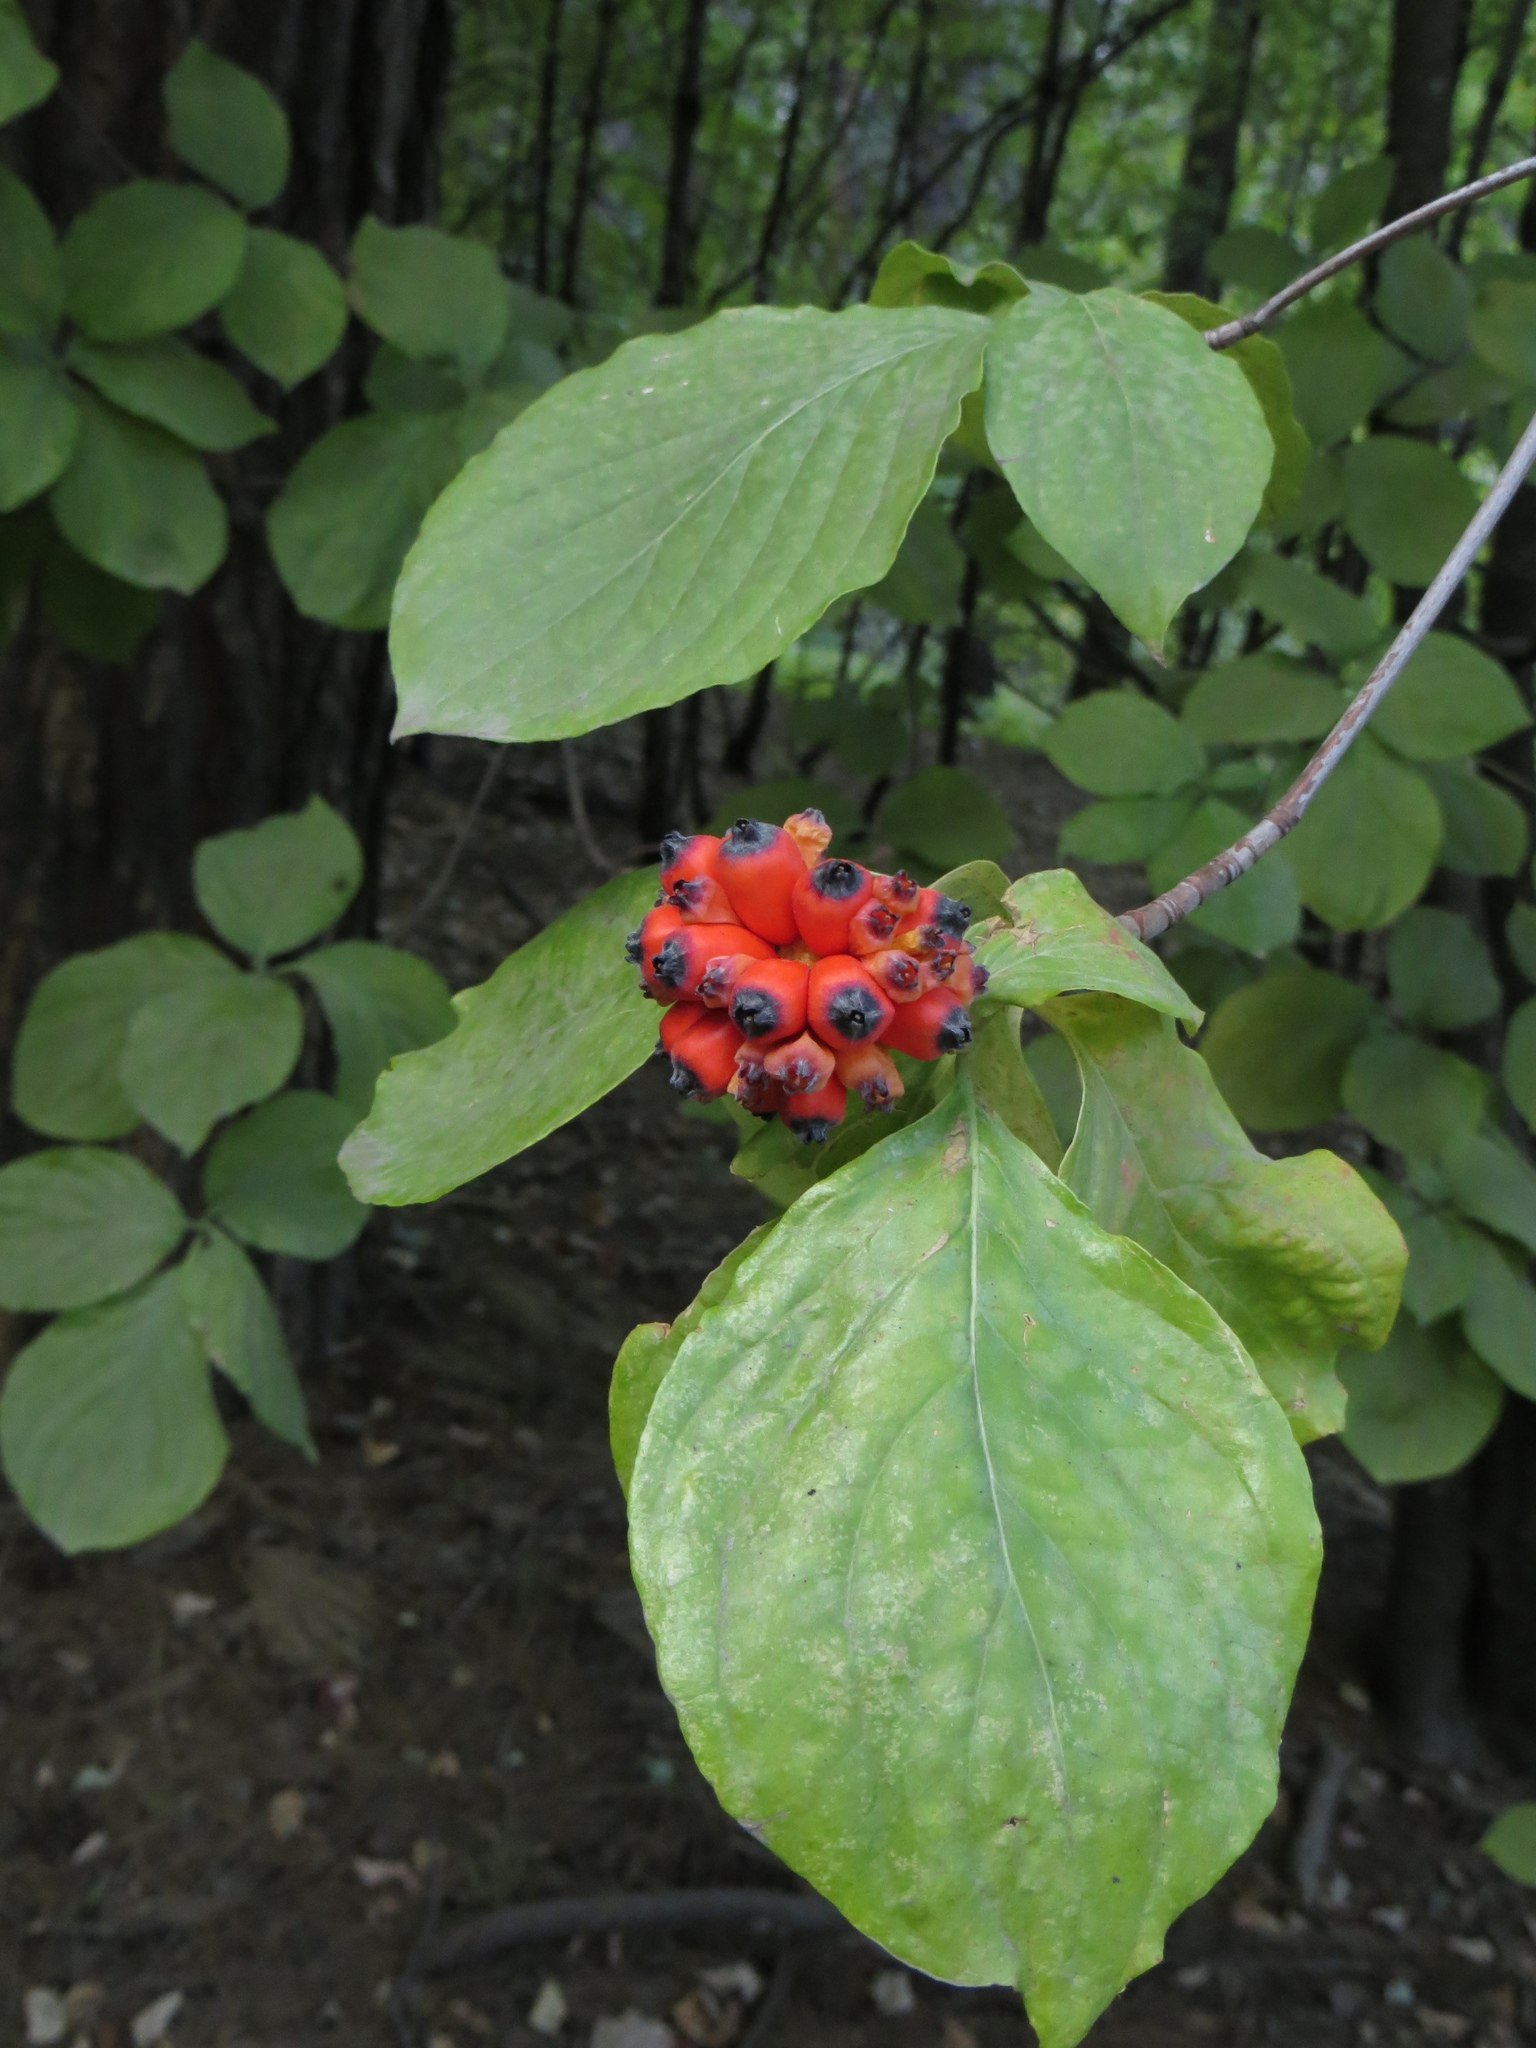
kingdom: Plantae
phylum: Tracheophyta
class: Magnoliopsida
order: Cornales
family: Cornaceae
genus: Cornus
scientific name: Cornus nuttallii
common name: Pacific dogwood
